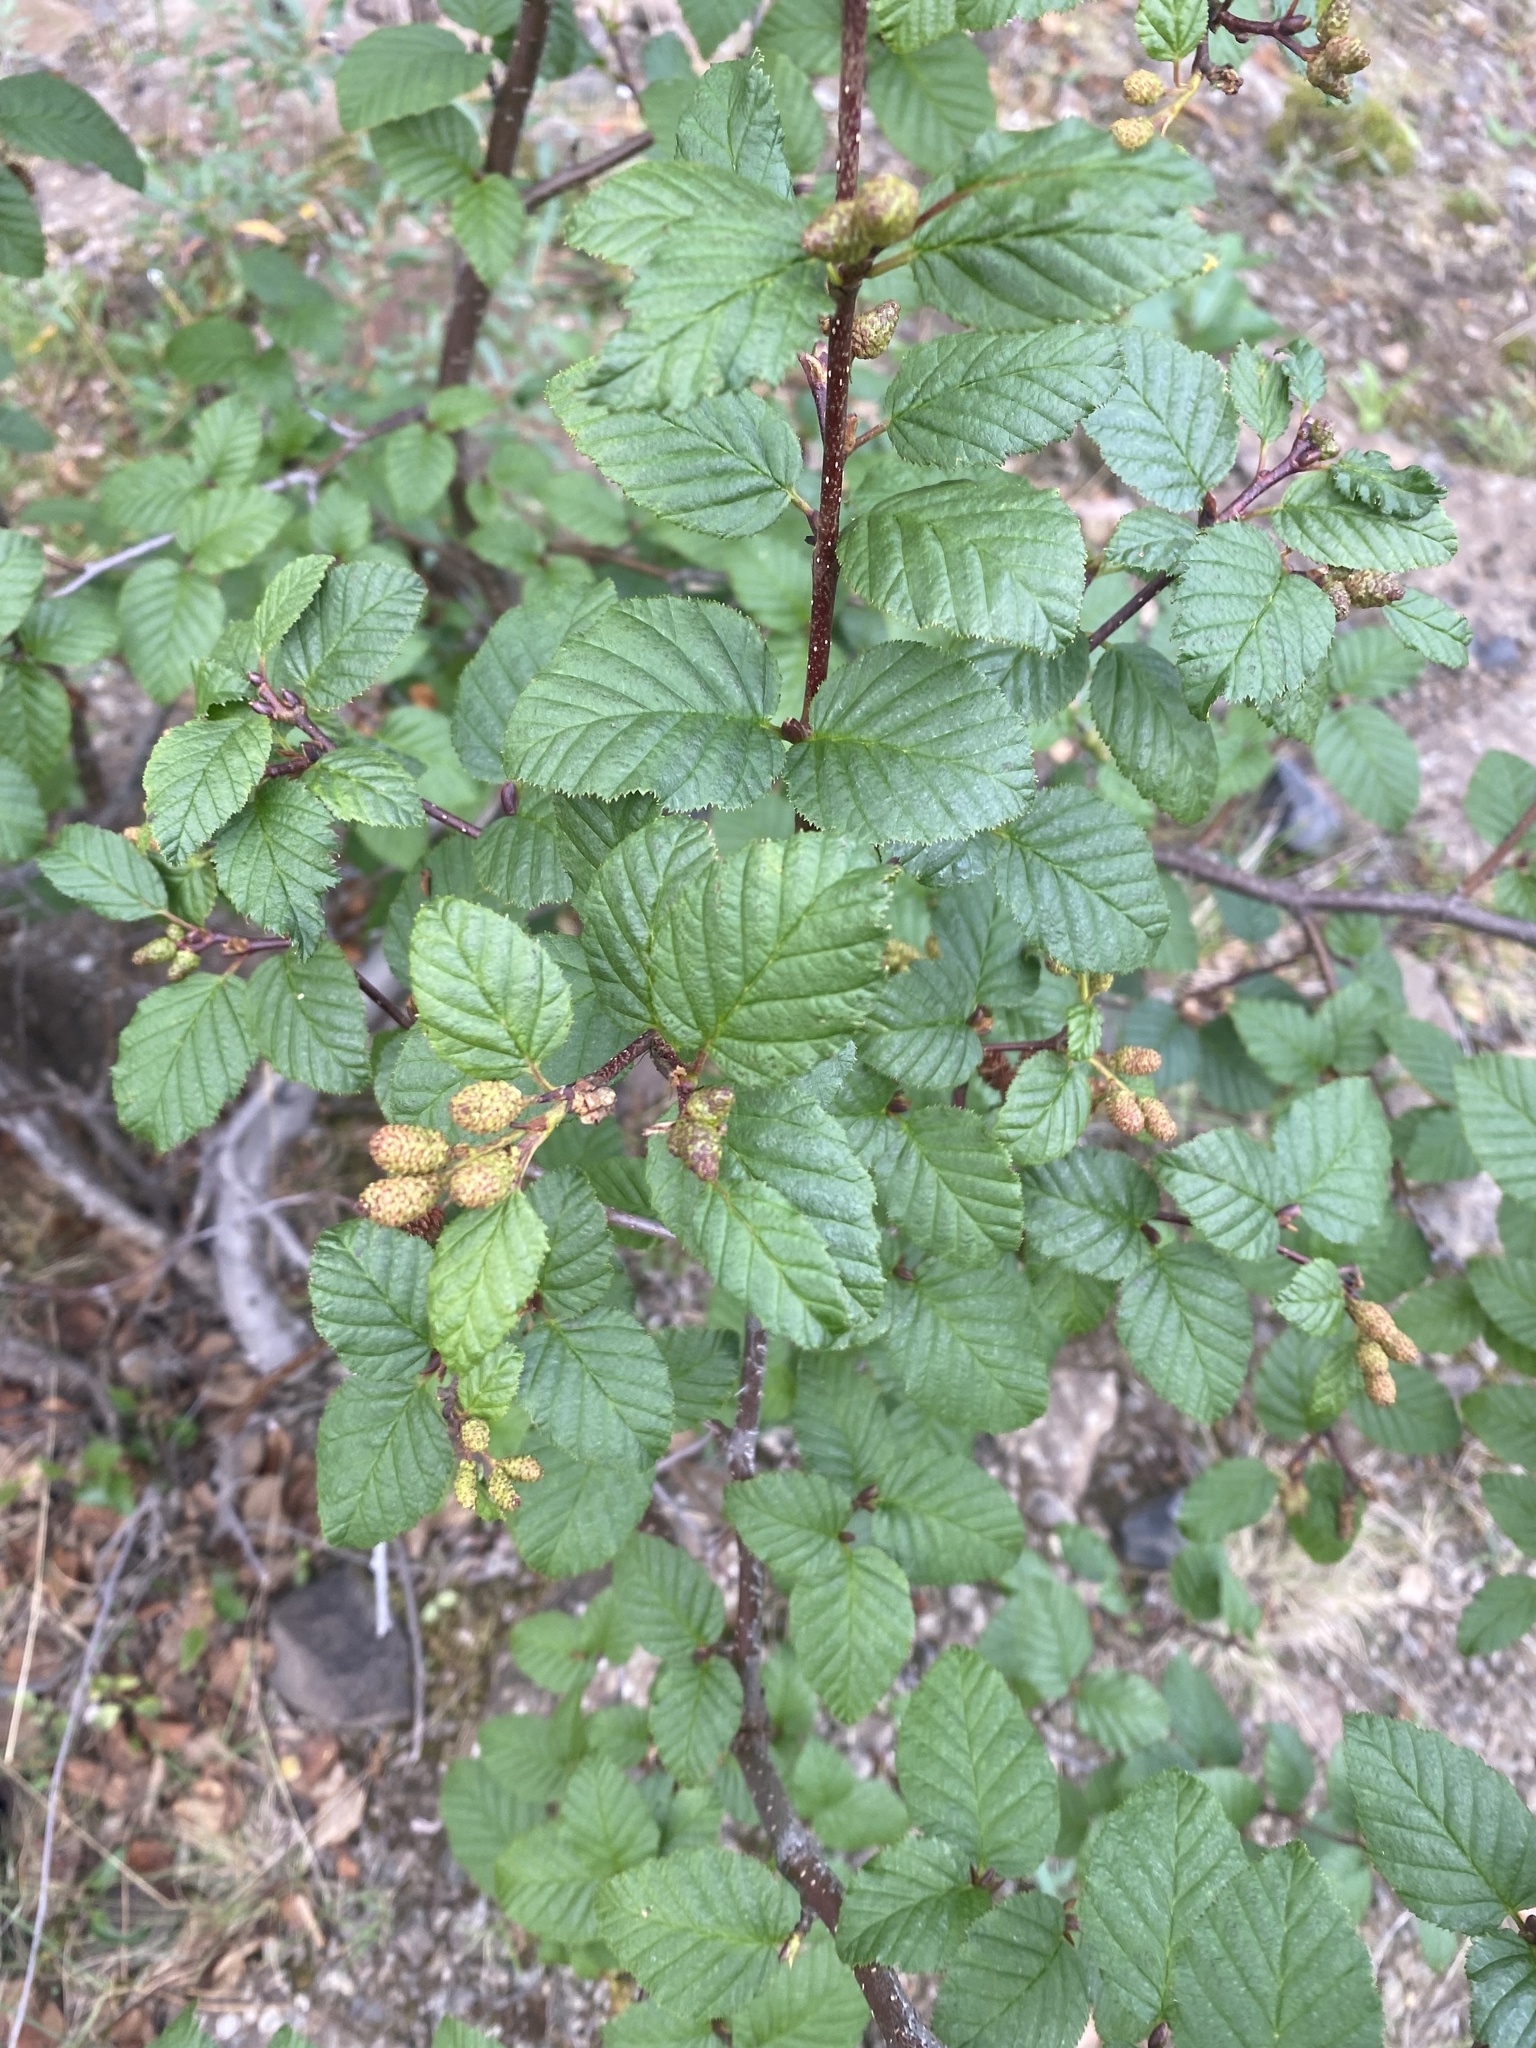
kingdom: Plantae
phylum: Tracheophyta
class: Magnoliopsida
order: Fagales
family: Betulaceae
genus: Alnus
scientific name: Alnus alnobetula
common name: Green alder
